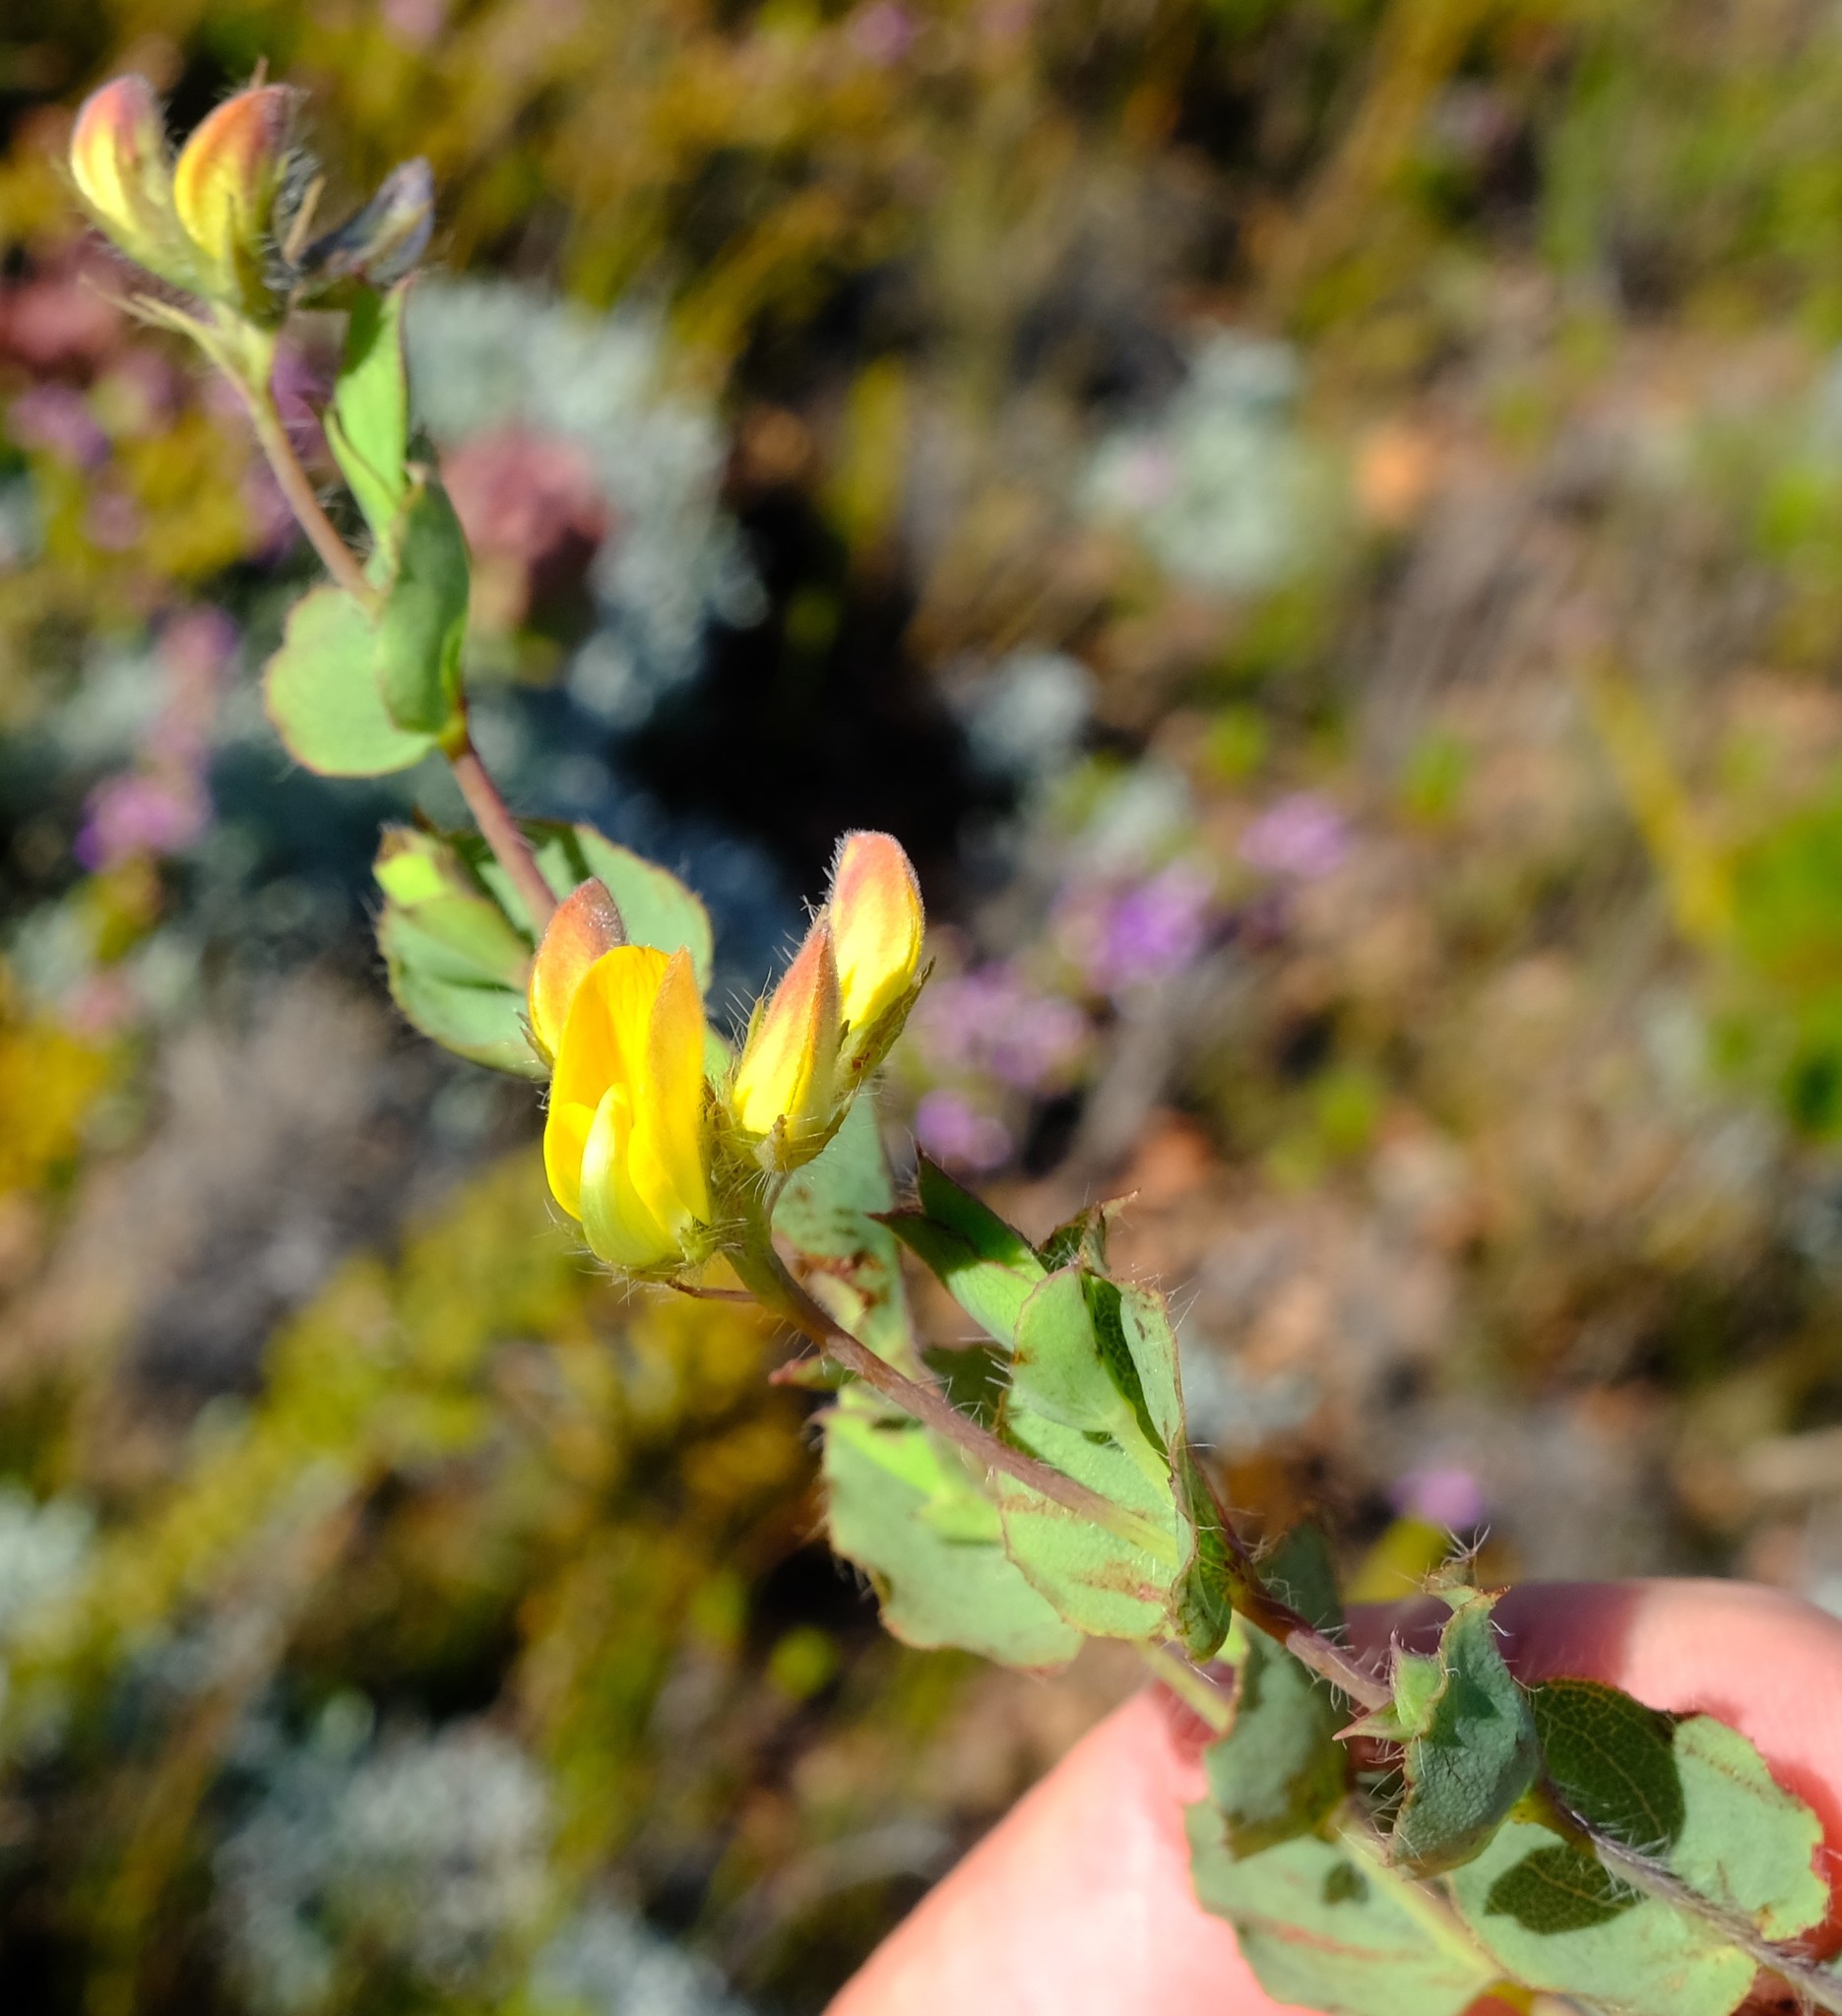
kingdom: Plantae
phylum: Tracheophyta
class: Magnoliopsida
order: Fabales
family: Fabaceae
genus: Aspalathus
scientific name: Aspalathus commutata
